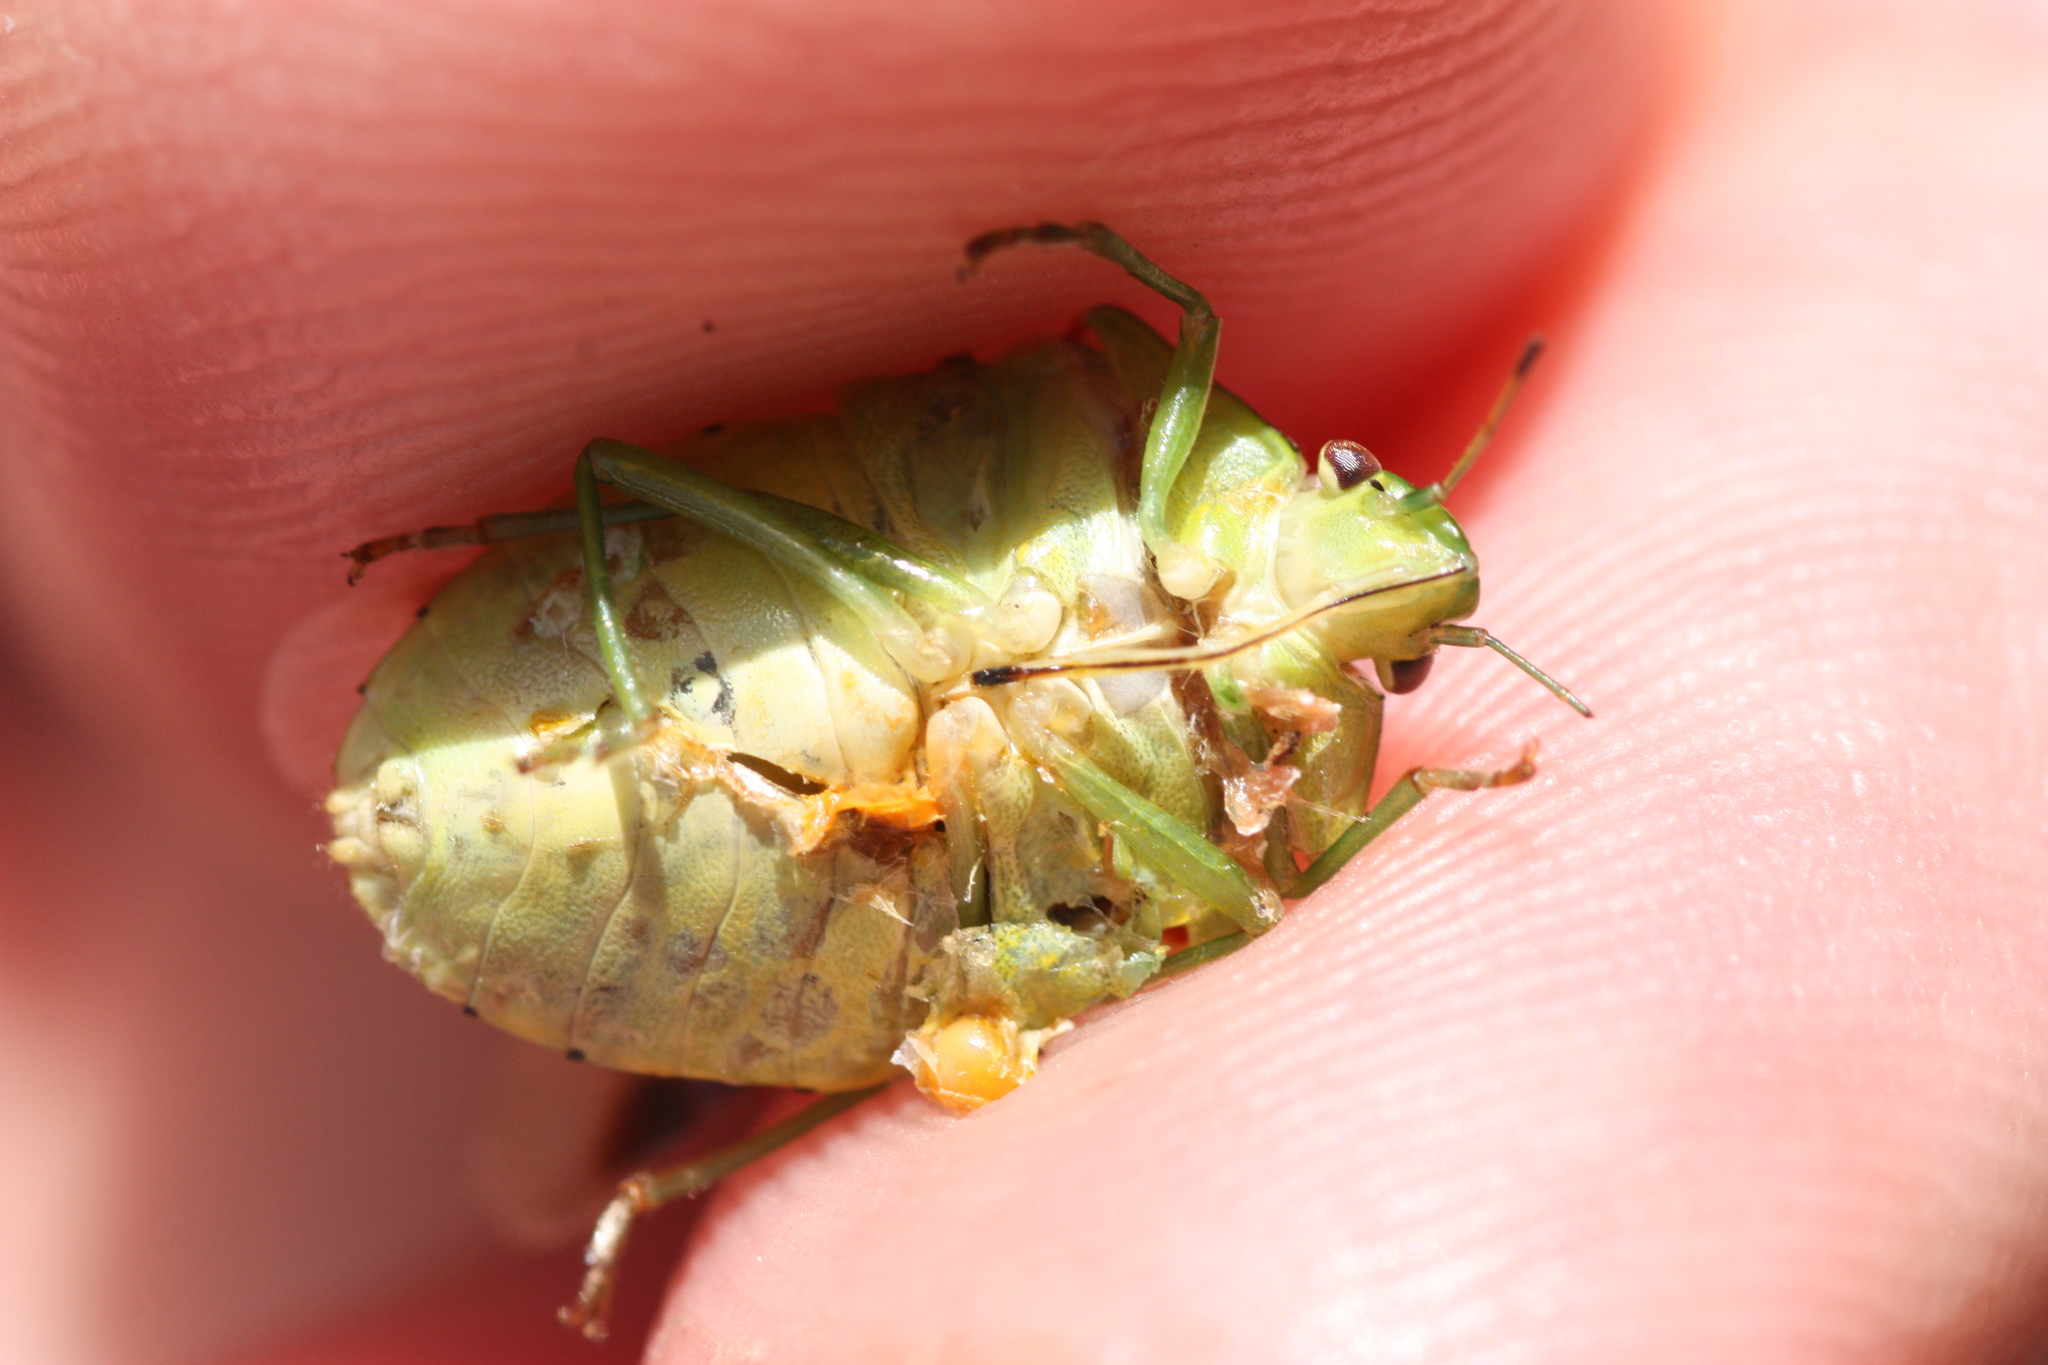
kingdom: Animalia
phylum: Arthropoda
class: Insecta
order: Hemiptera
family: Pentatomidae
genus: Plautia
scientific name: Plautia stali
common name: Stink bug
